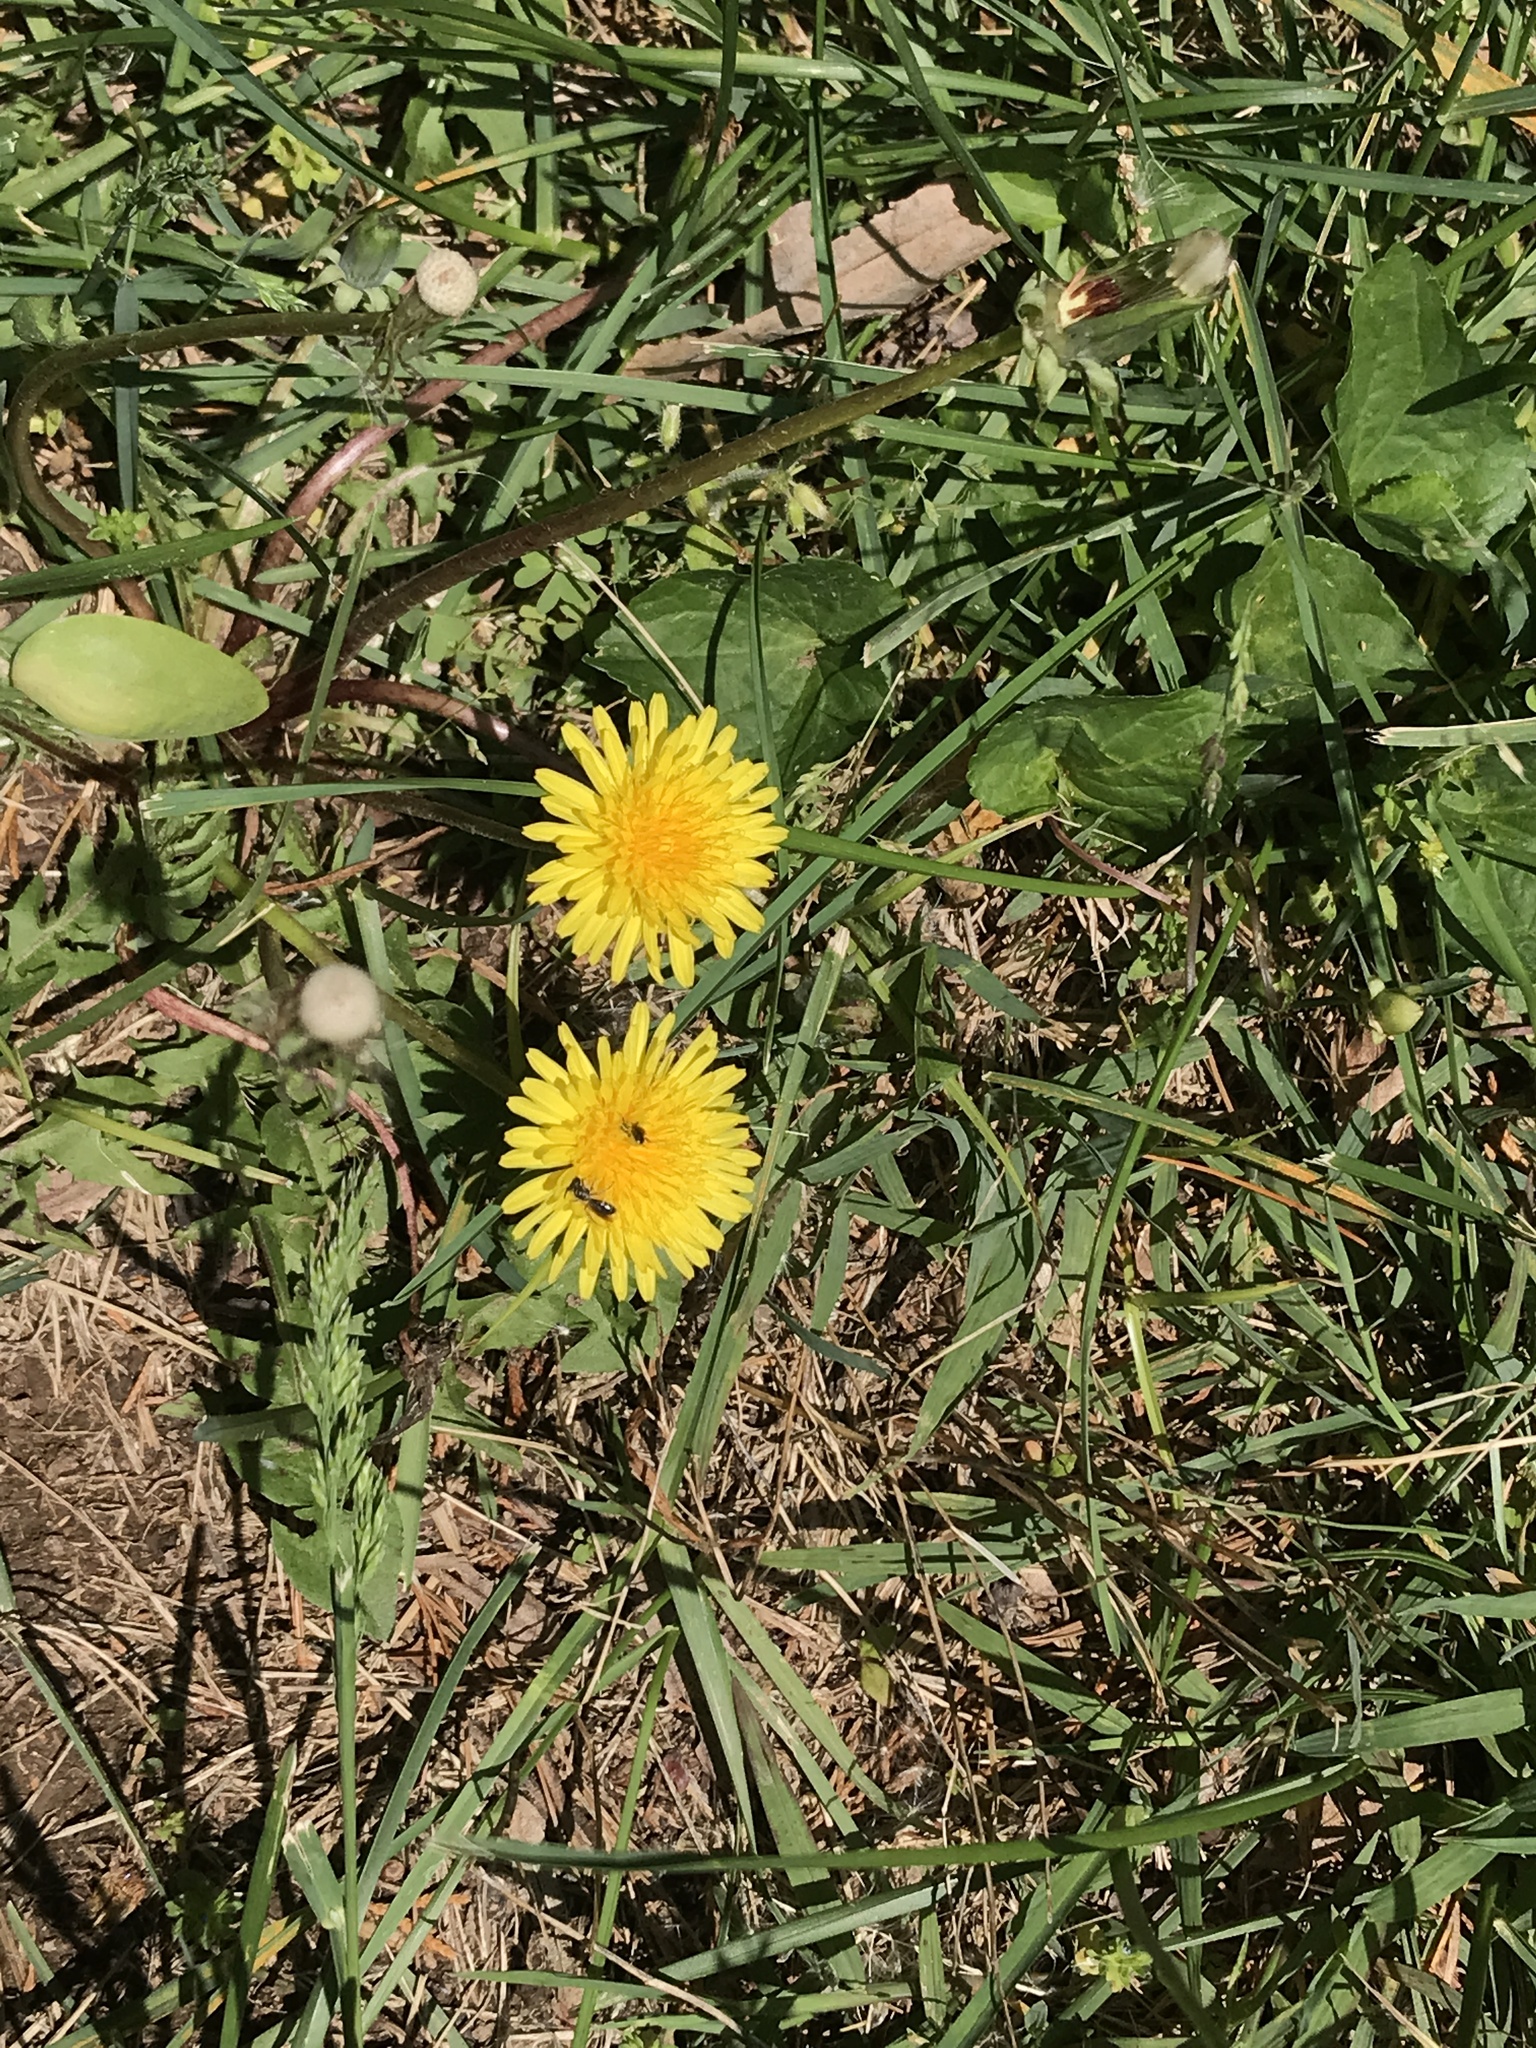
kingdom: Plantae
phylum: Tracheophyta
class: Magnoliopsida
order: Asterales
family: Asteraceae
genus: Taraxacum
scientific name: Taraxacum officinale
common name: Common dandelion
